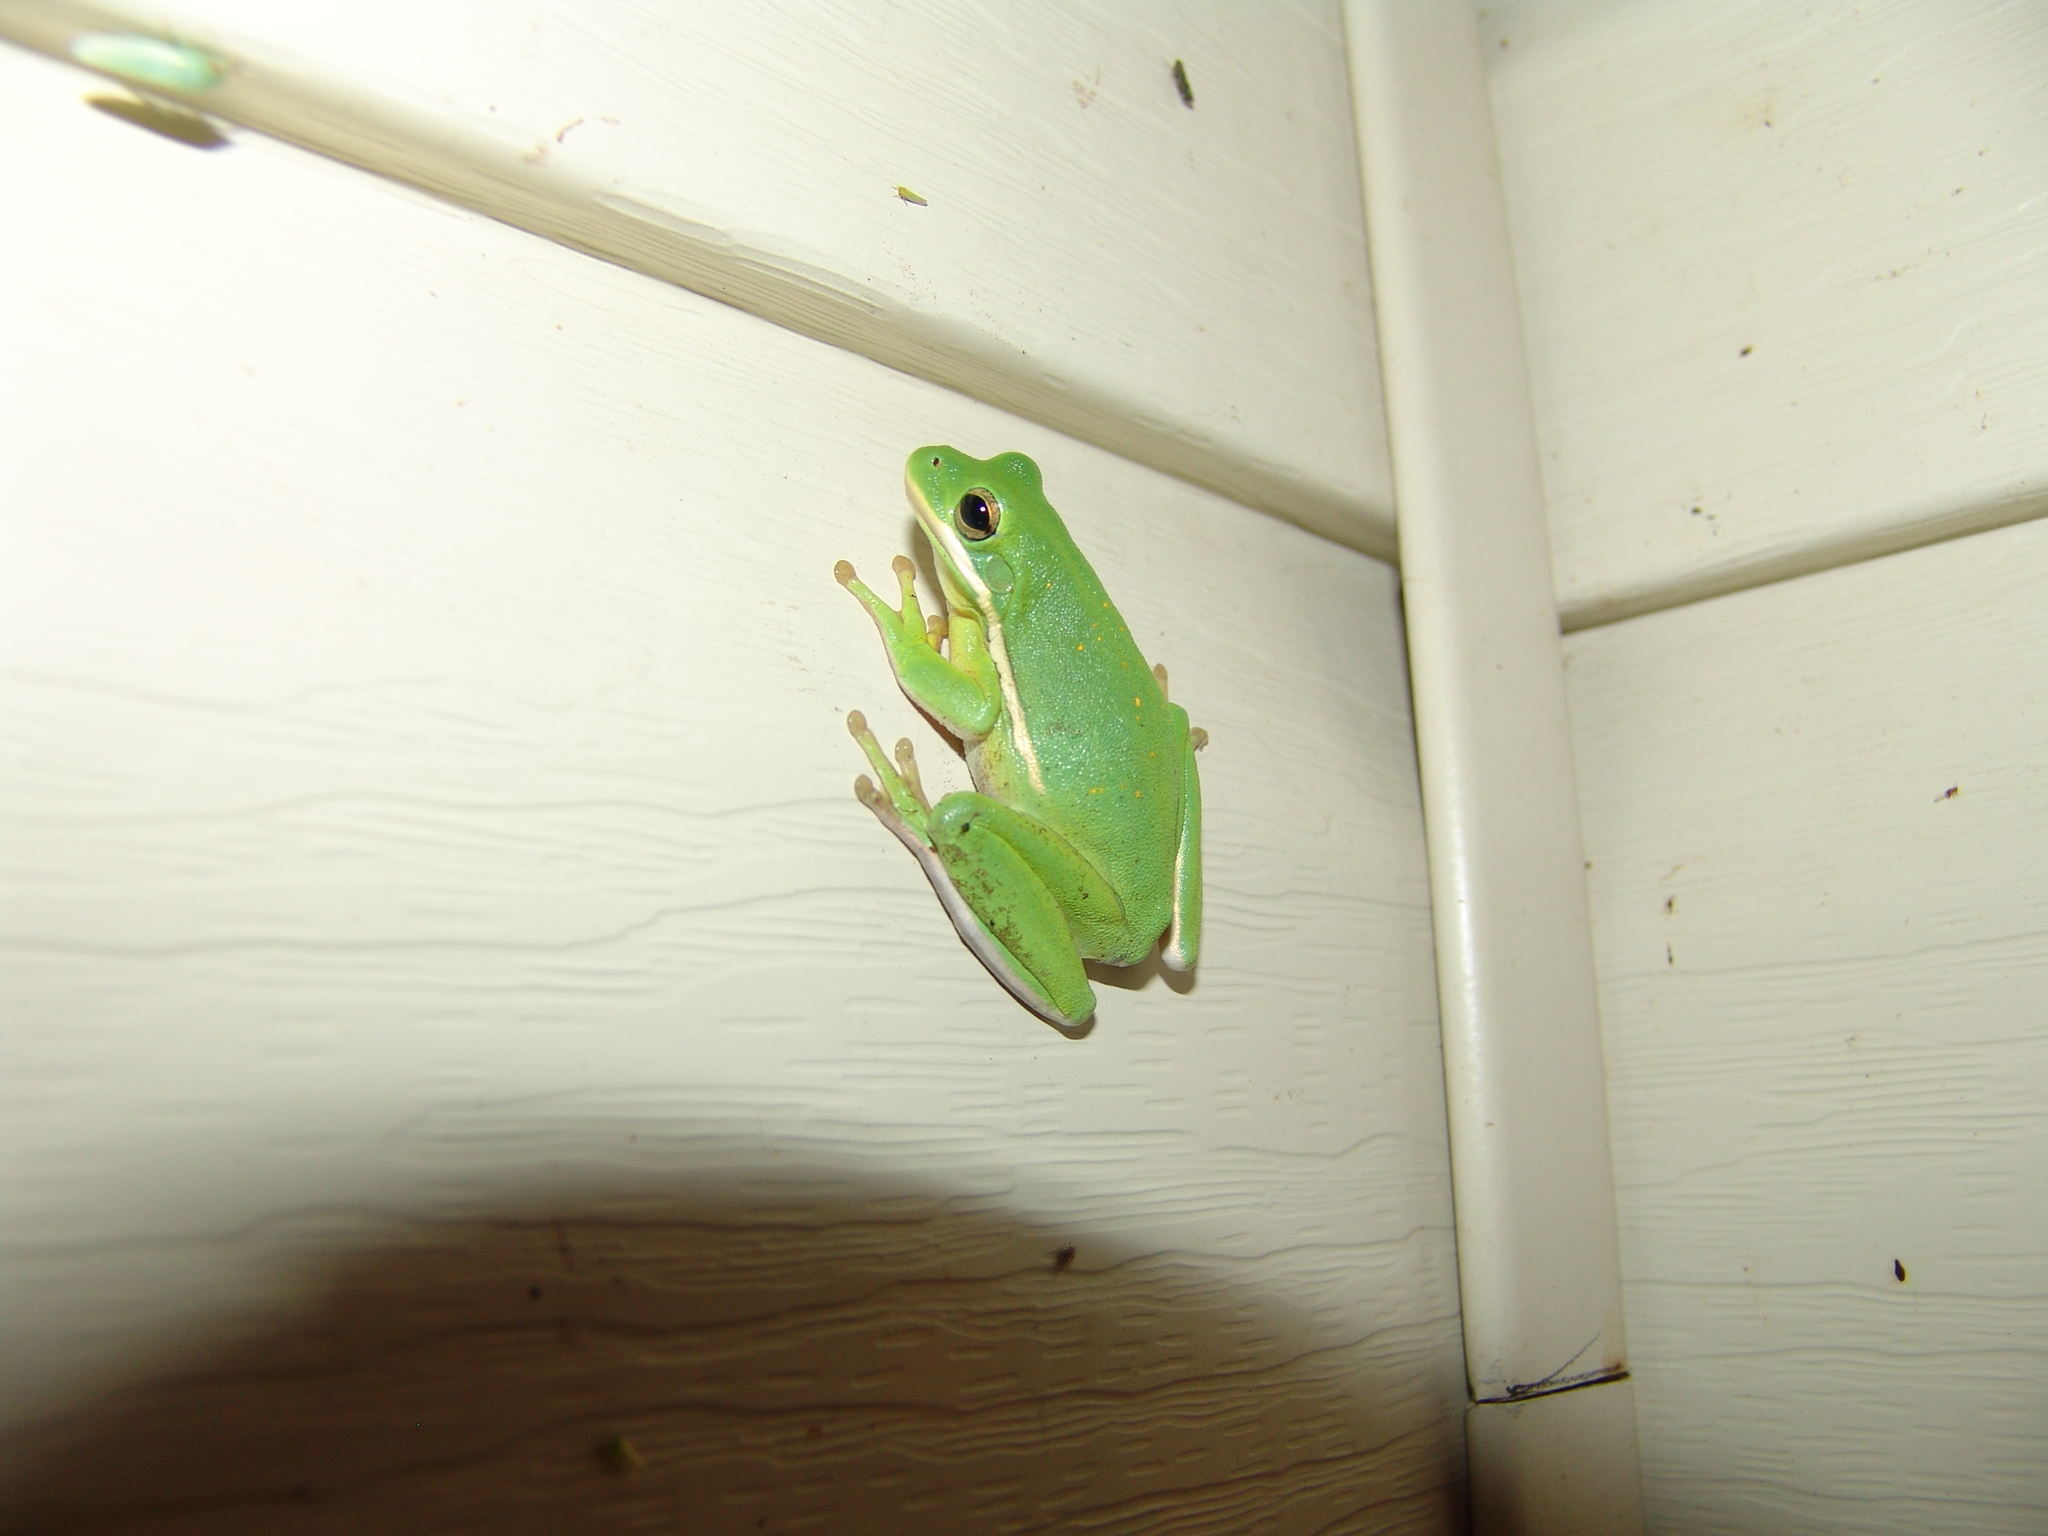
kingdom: Animalia
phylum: Chordata
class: Amphibia
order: Anura
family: Hylidae
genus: Dryophytes
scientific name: Dryophytes cinereus
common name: Green treefrog
